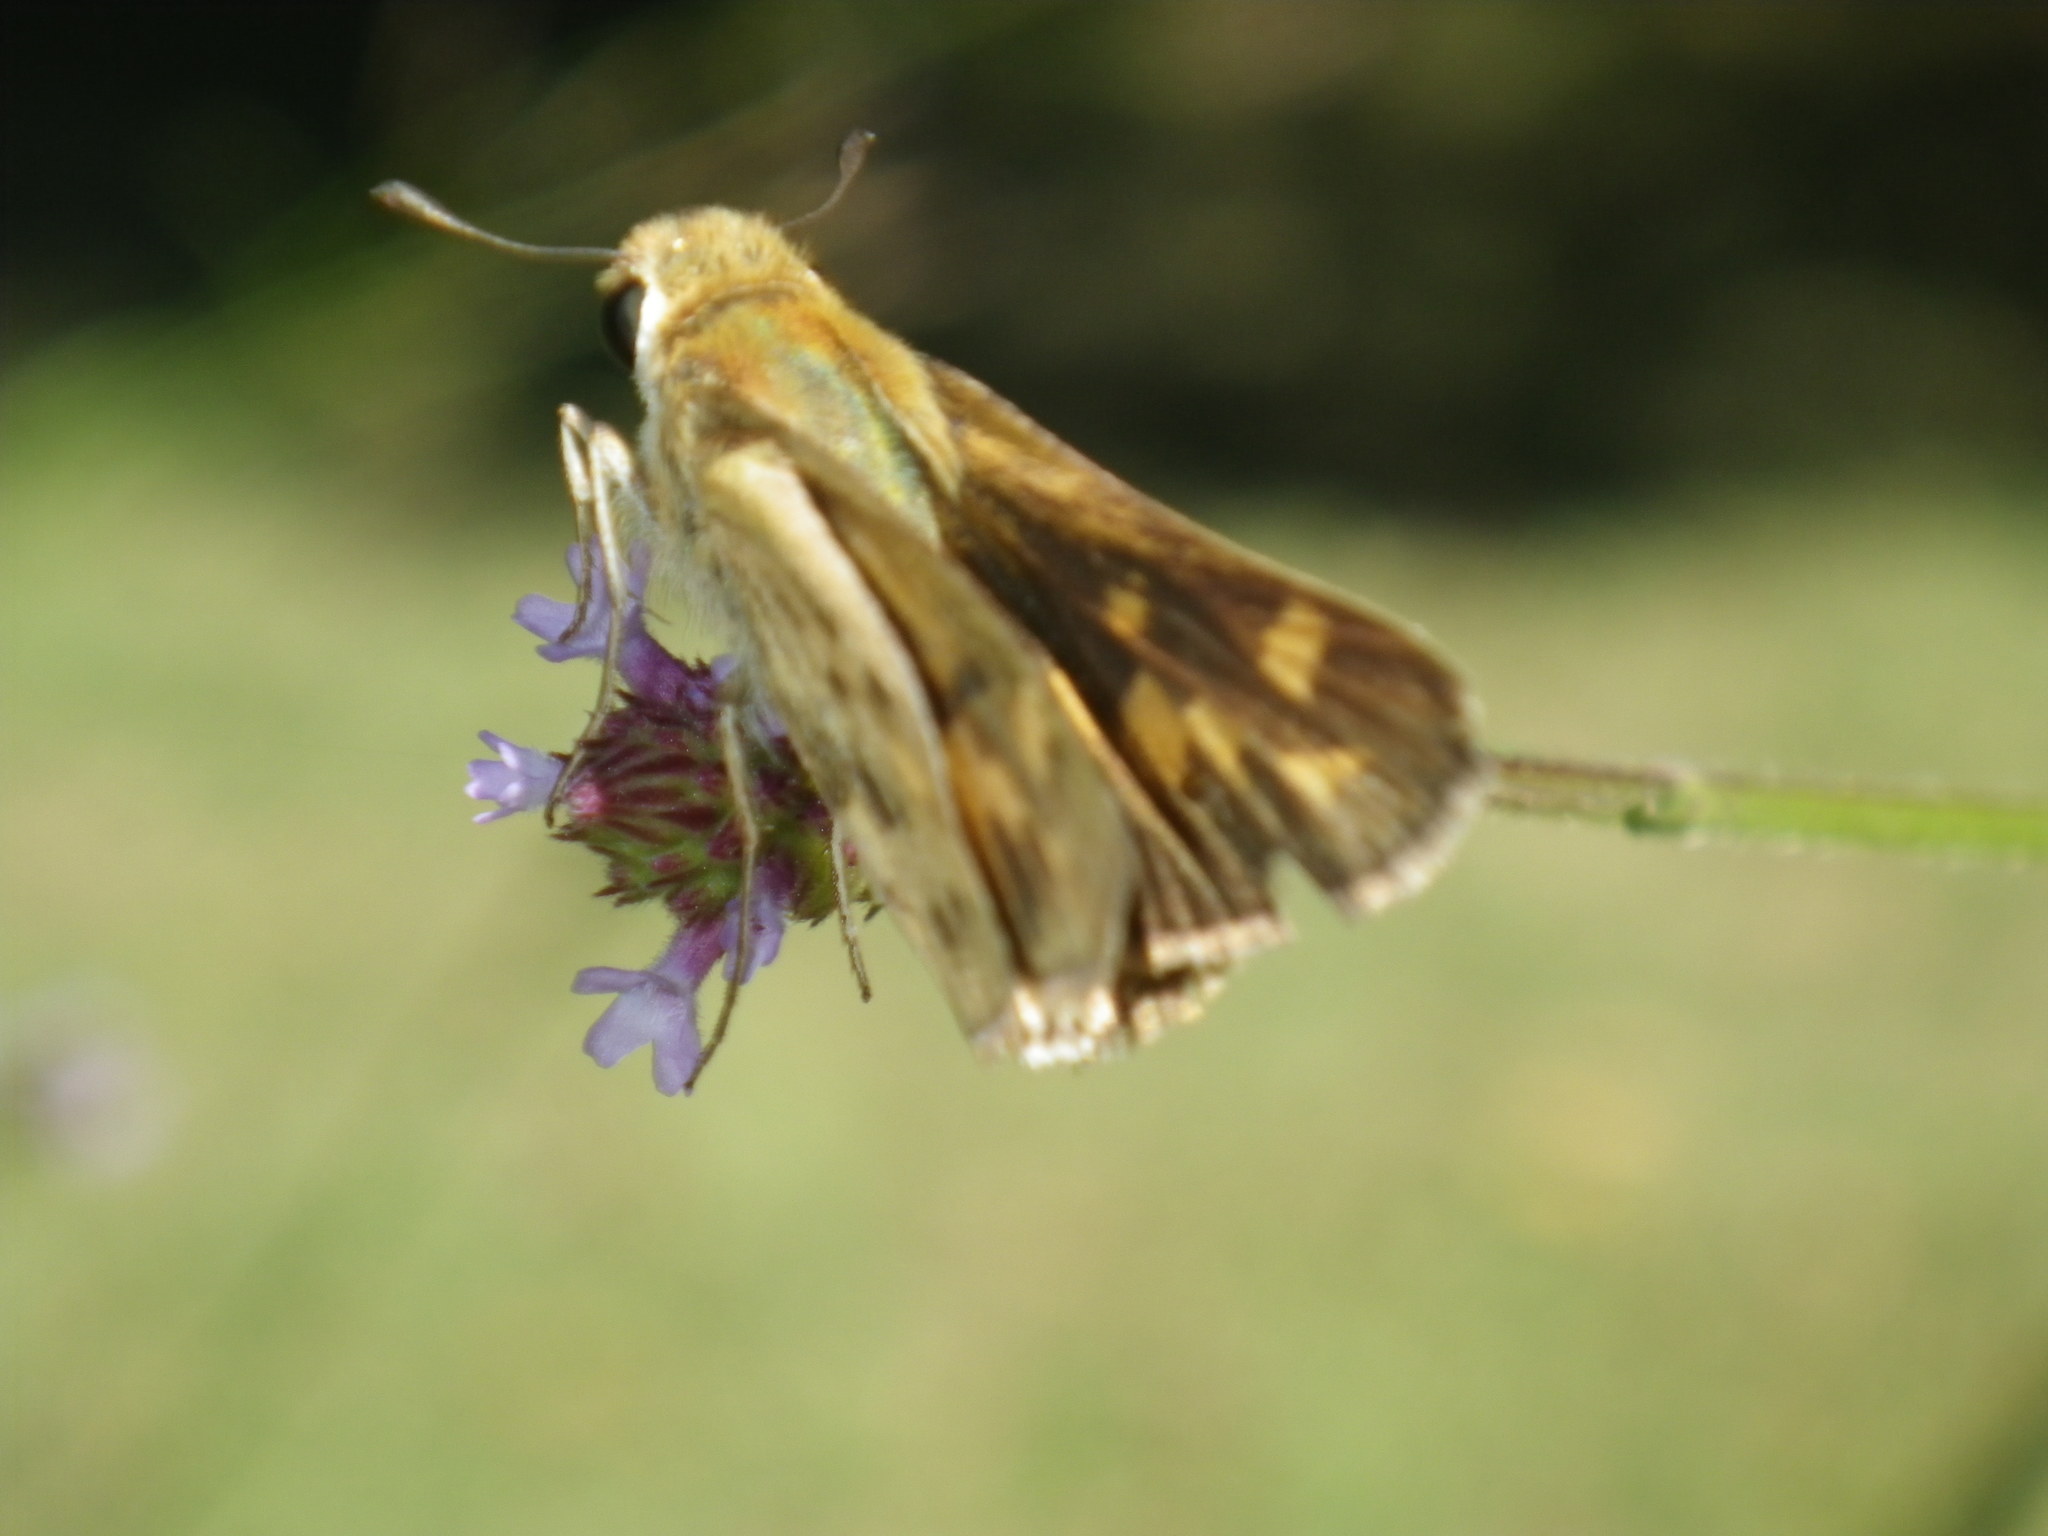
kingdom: Animalia
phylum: Arthropoda
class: Insecta
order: Lepidoptera
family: Hesperiidae
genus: Lon
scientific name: Lon melane
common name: Umber skipper
